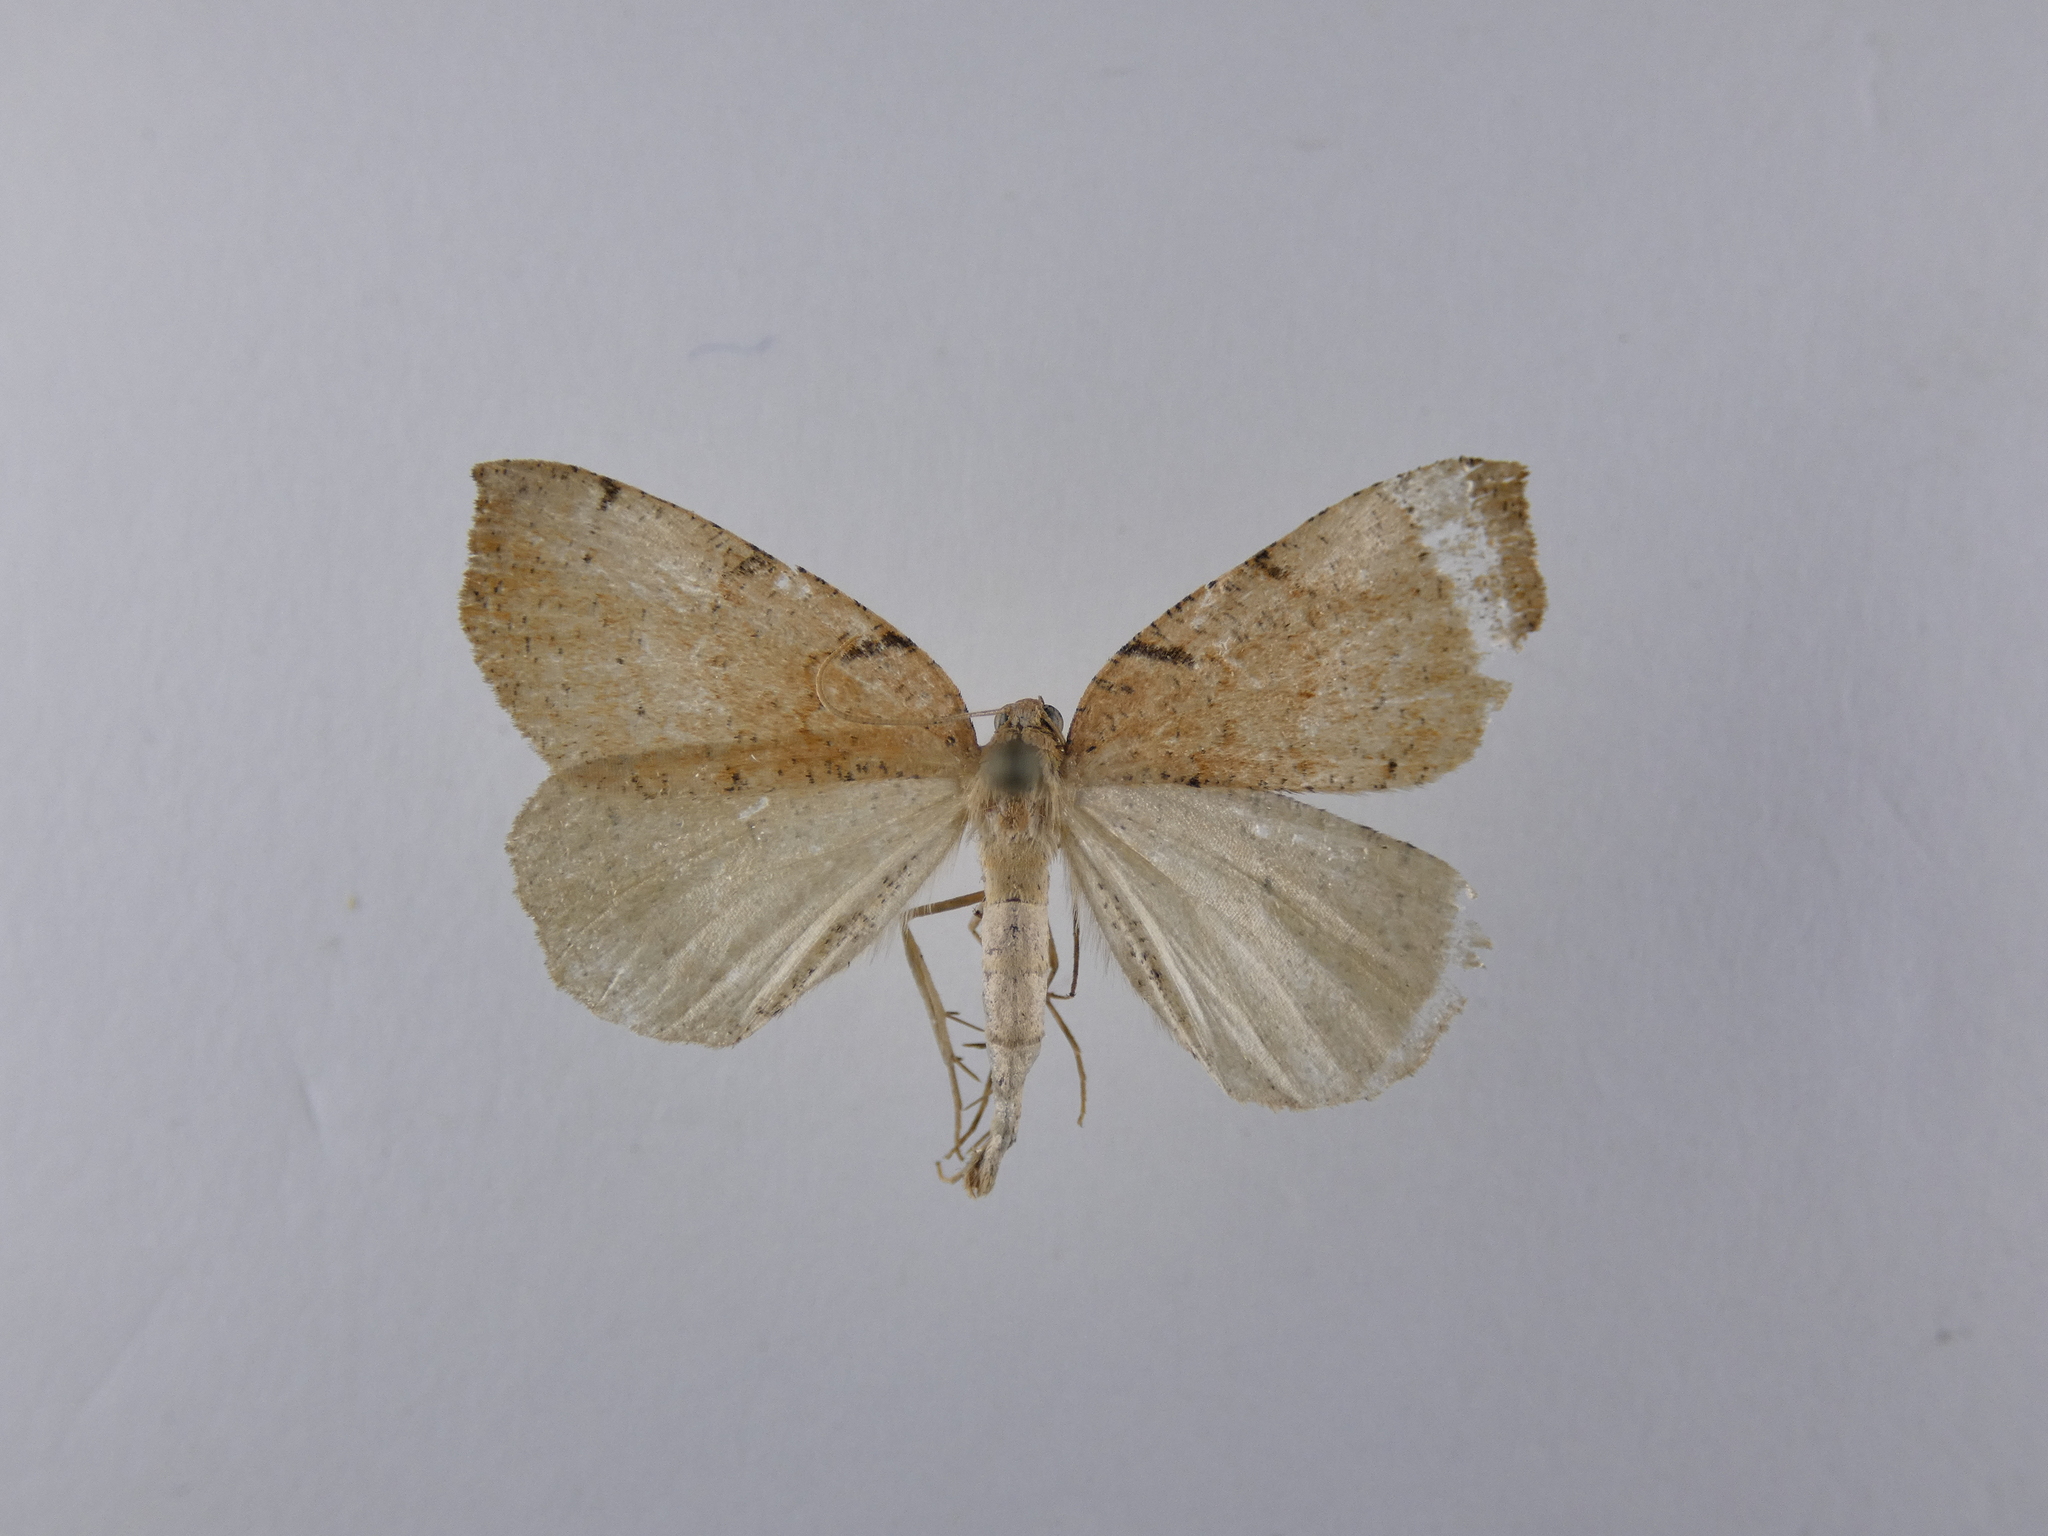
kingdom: Animalia
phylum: Arthropoda
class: Insecta
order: Lepidoptera
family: Geometridae
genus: Sestra
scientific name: Sestra humeraria
